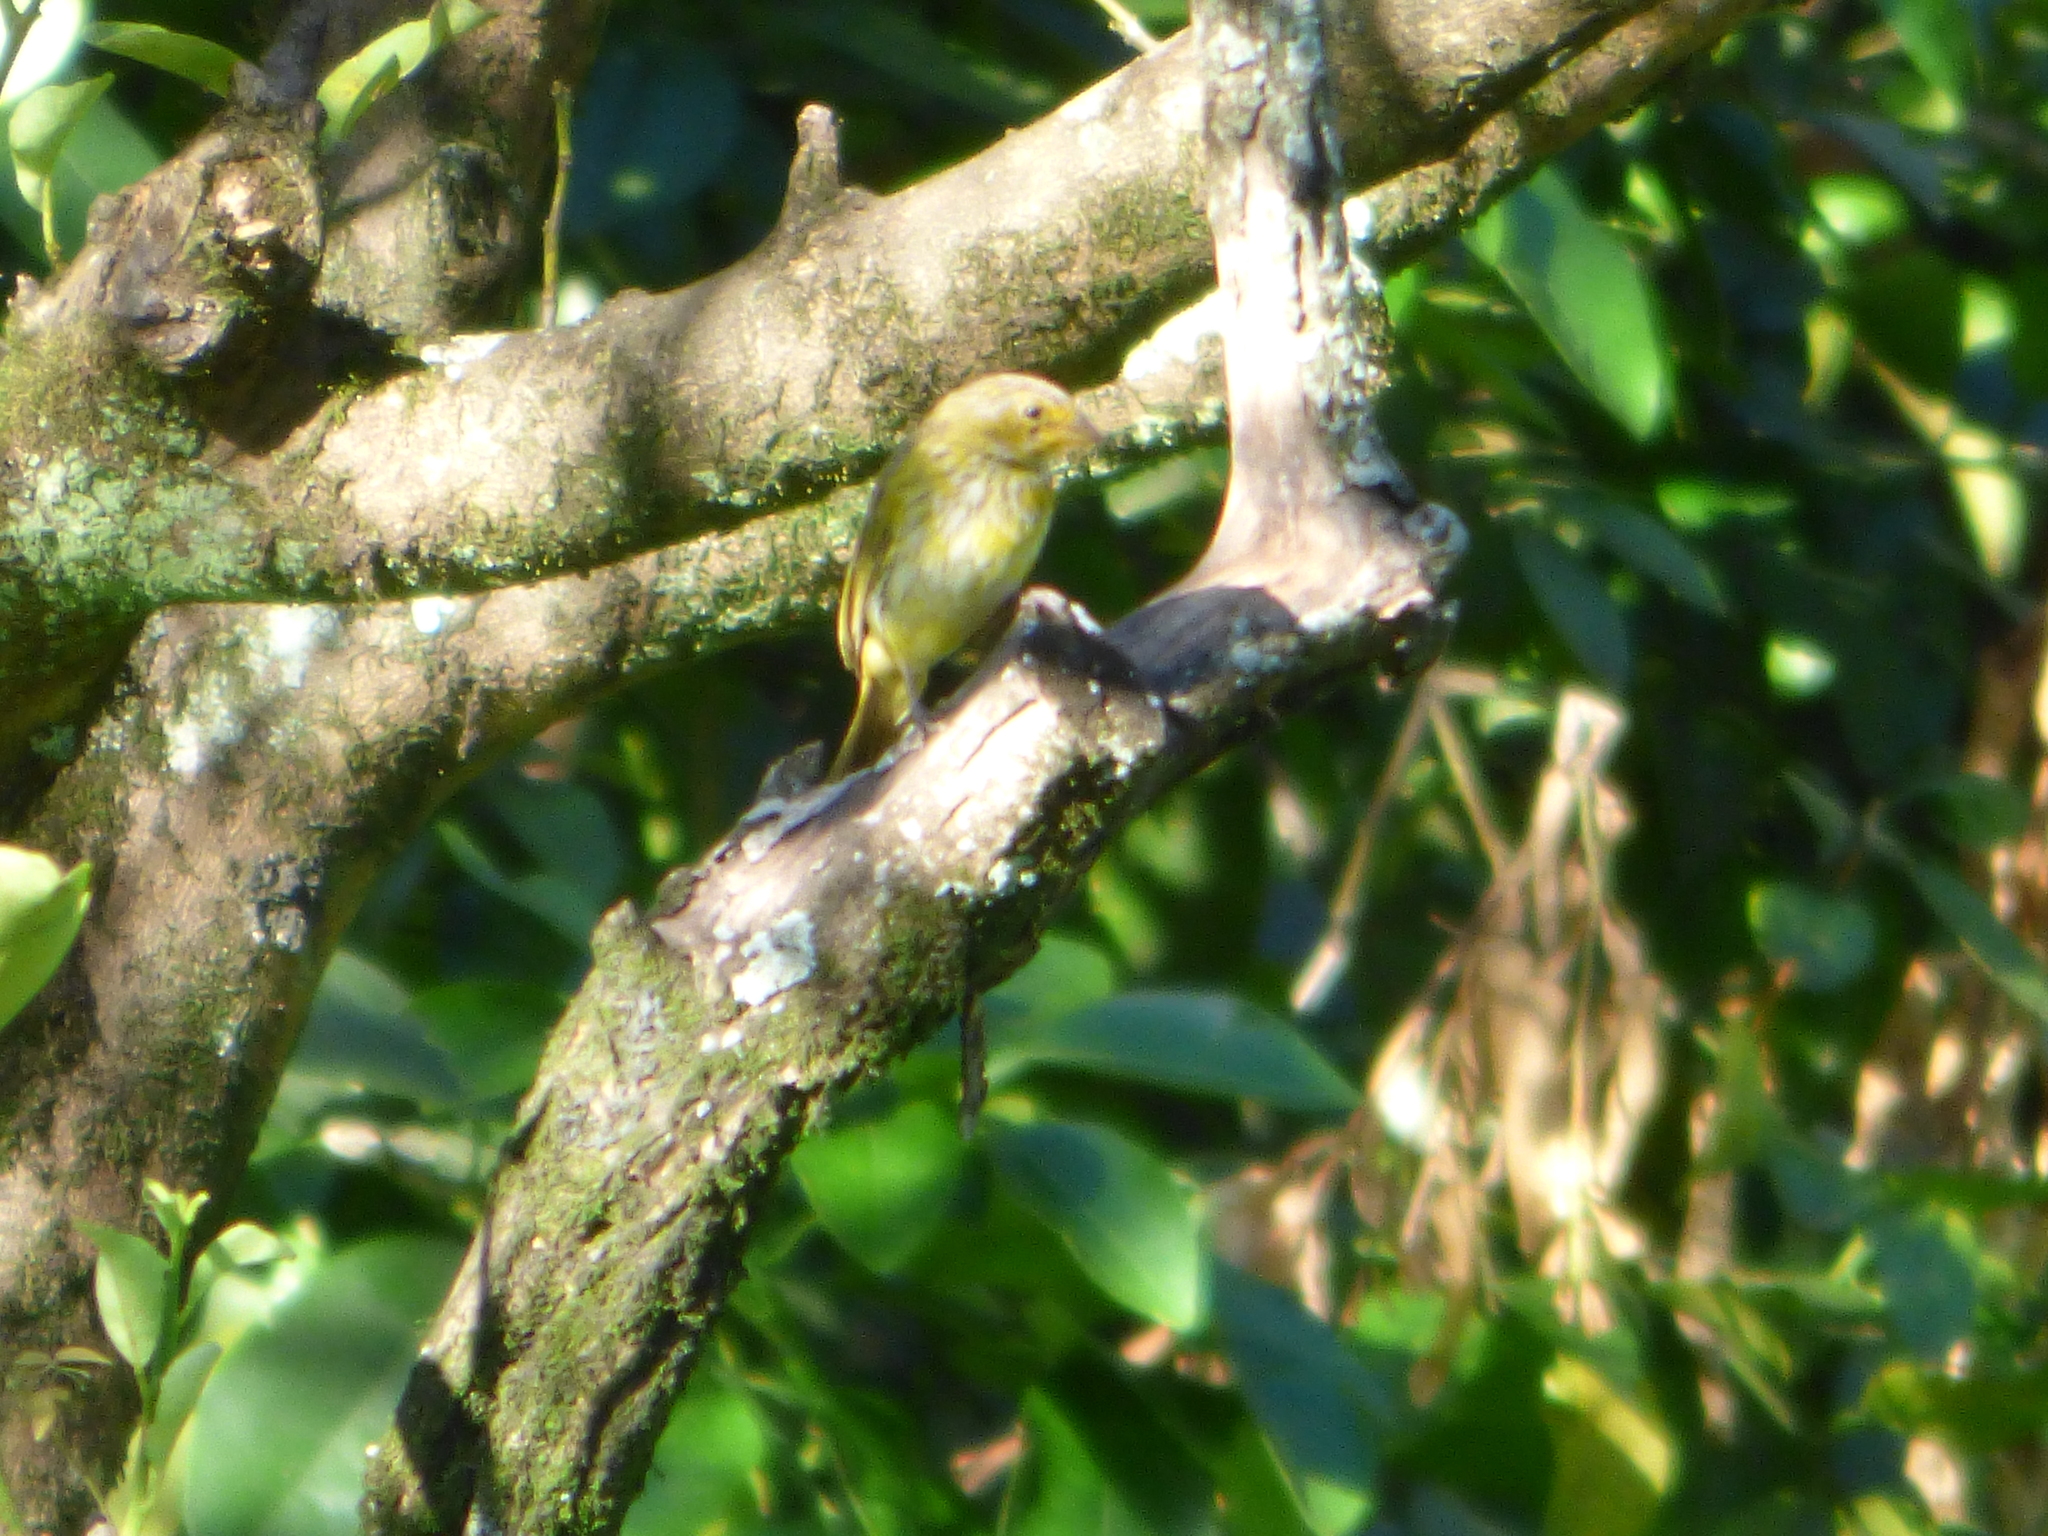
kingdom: Animalia
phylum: Chordata
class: Aves
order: Passeriformes
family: Thraupidae
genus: Sicalis
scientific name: Sicalis flaveola
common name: Saffron finch
